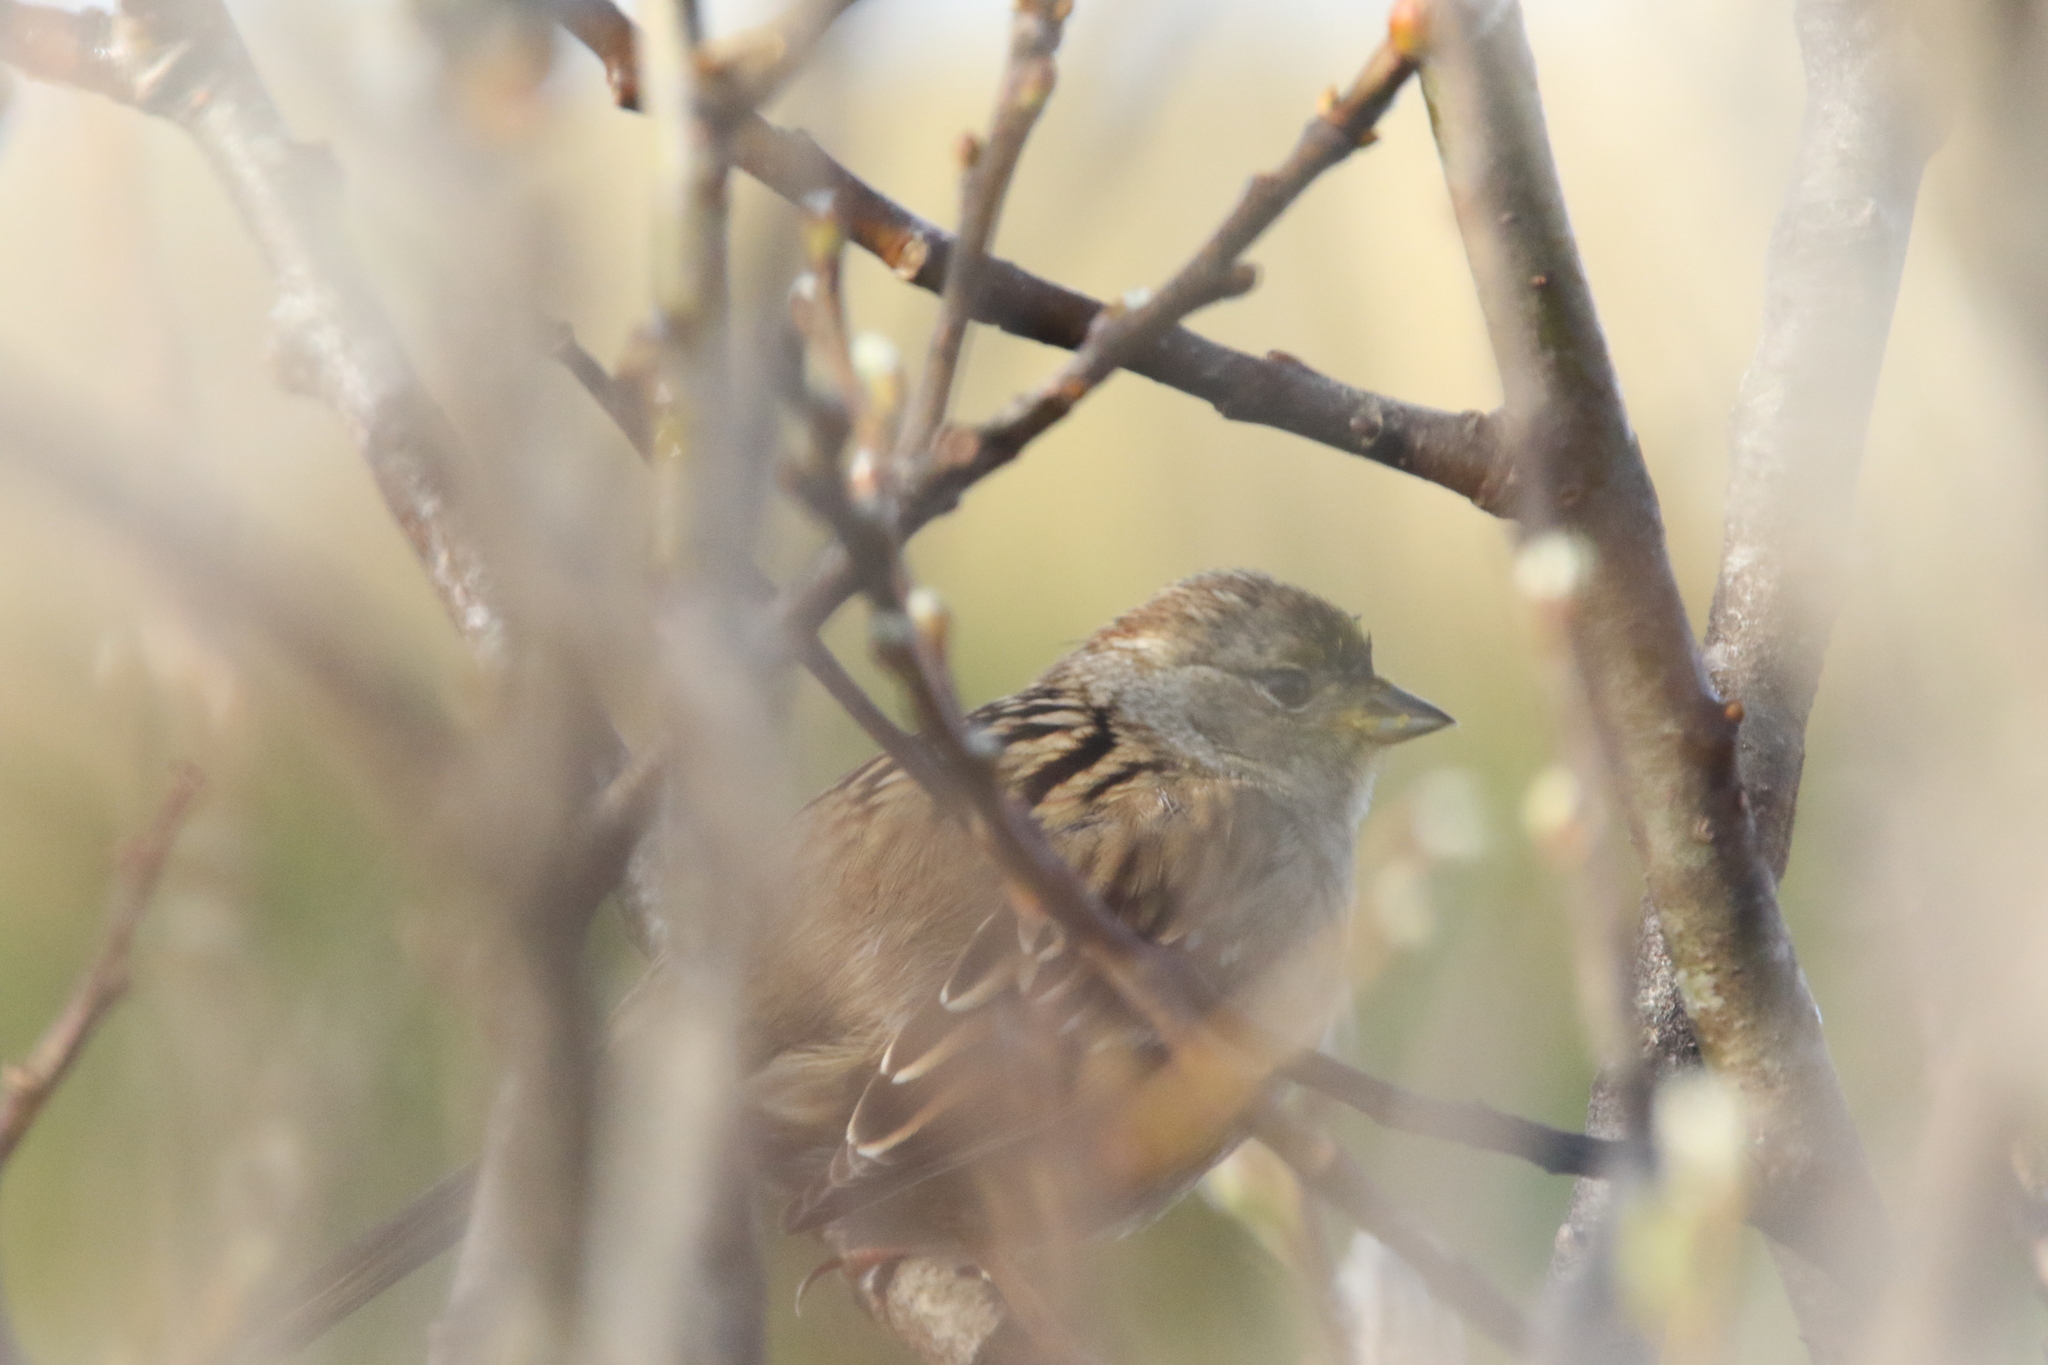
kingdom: Animalia
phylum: Chordata
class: Aves
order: Passeriformes
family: Passerellidae
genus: Zonotrichia
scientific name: Zonotrichia atricapilla
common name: Golden-crowned sparrow
